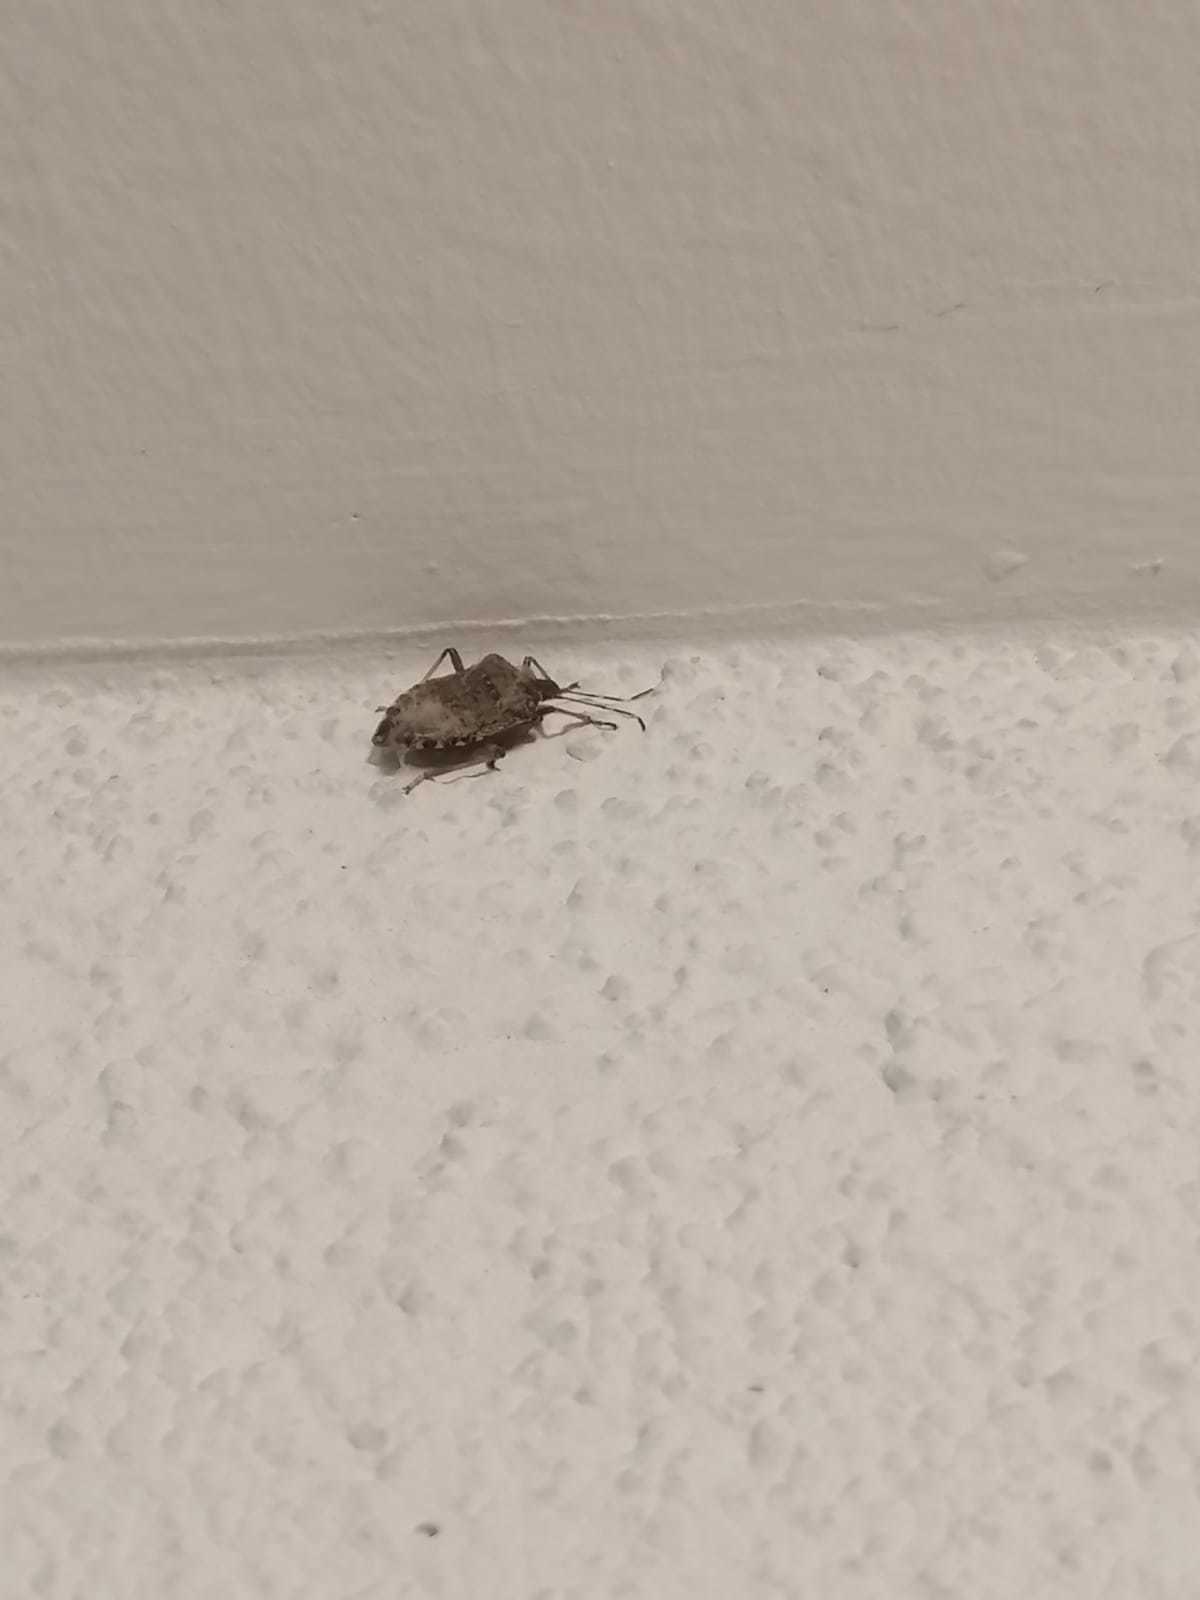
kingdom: Animalia
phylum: Arthropoda
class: Insecta
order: Hemiptera
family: Pentatomidae
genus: Halyomorpha
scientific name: Halyomorpha halys
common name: Brown marmorated stink bug
